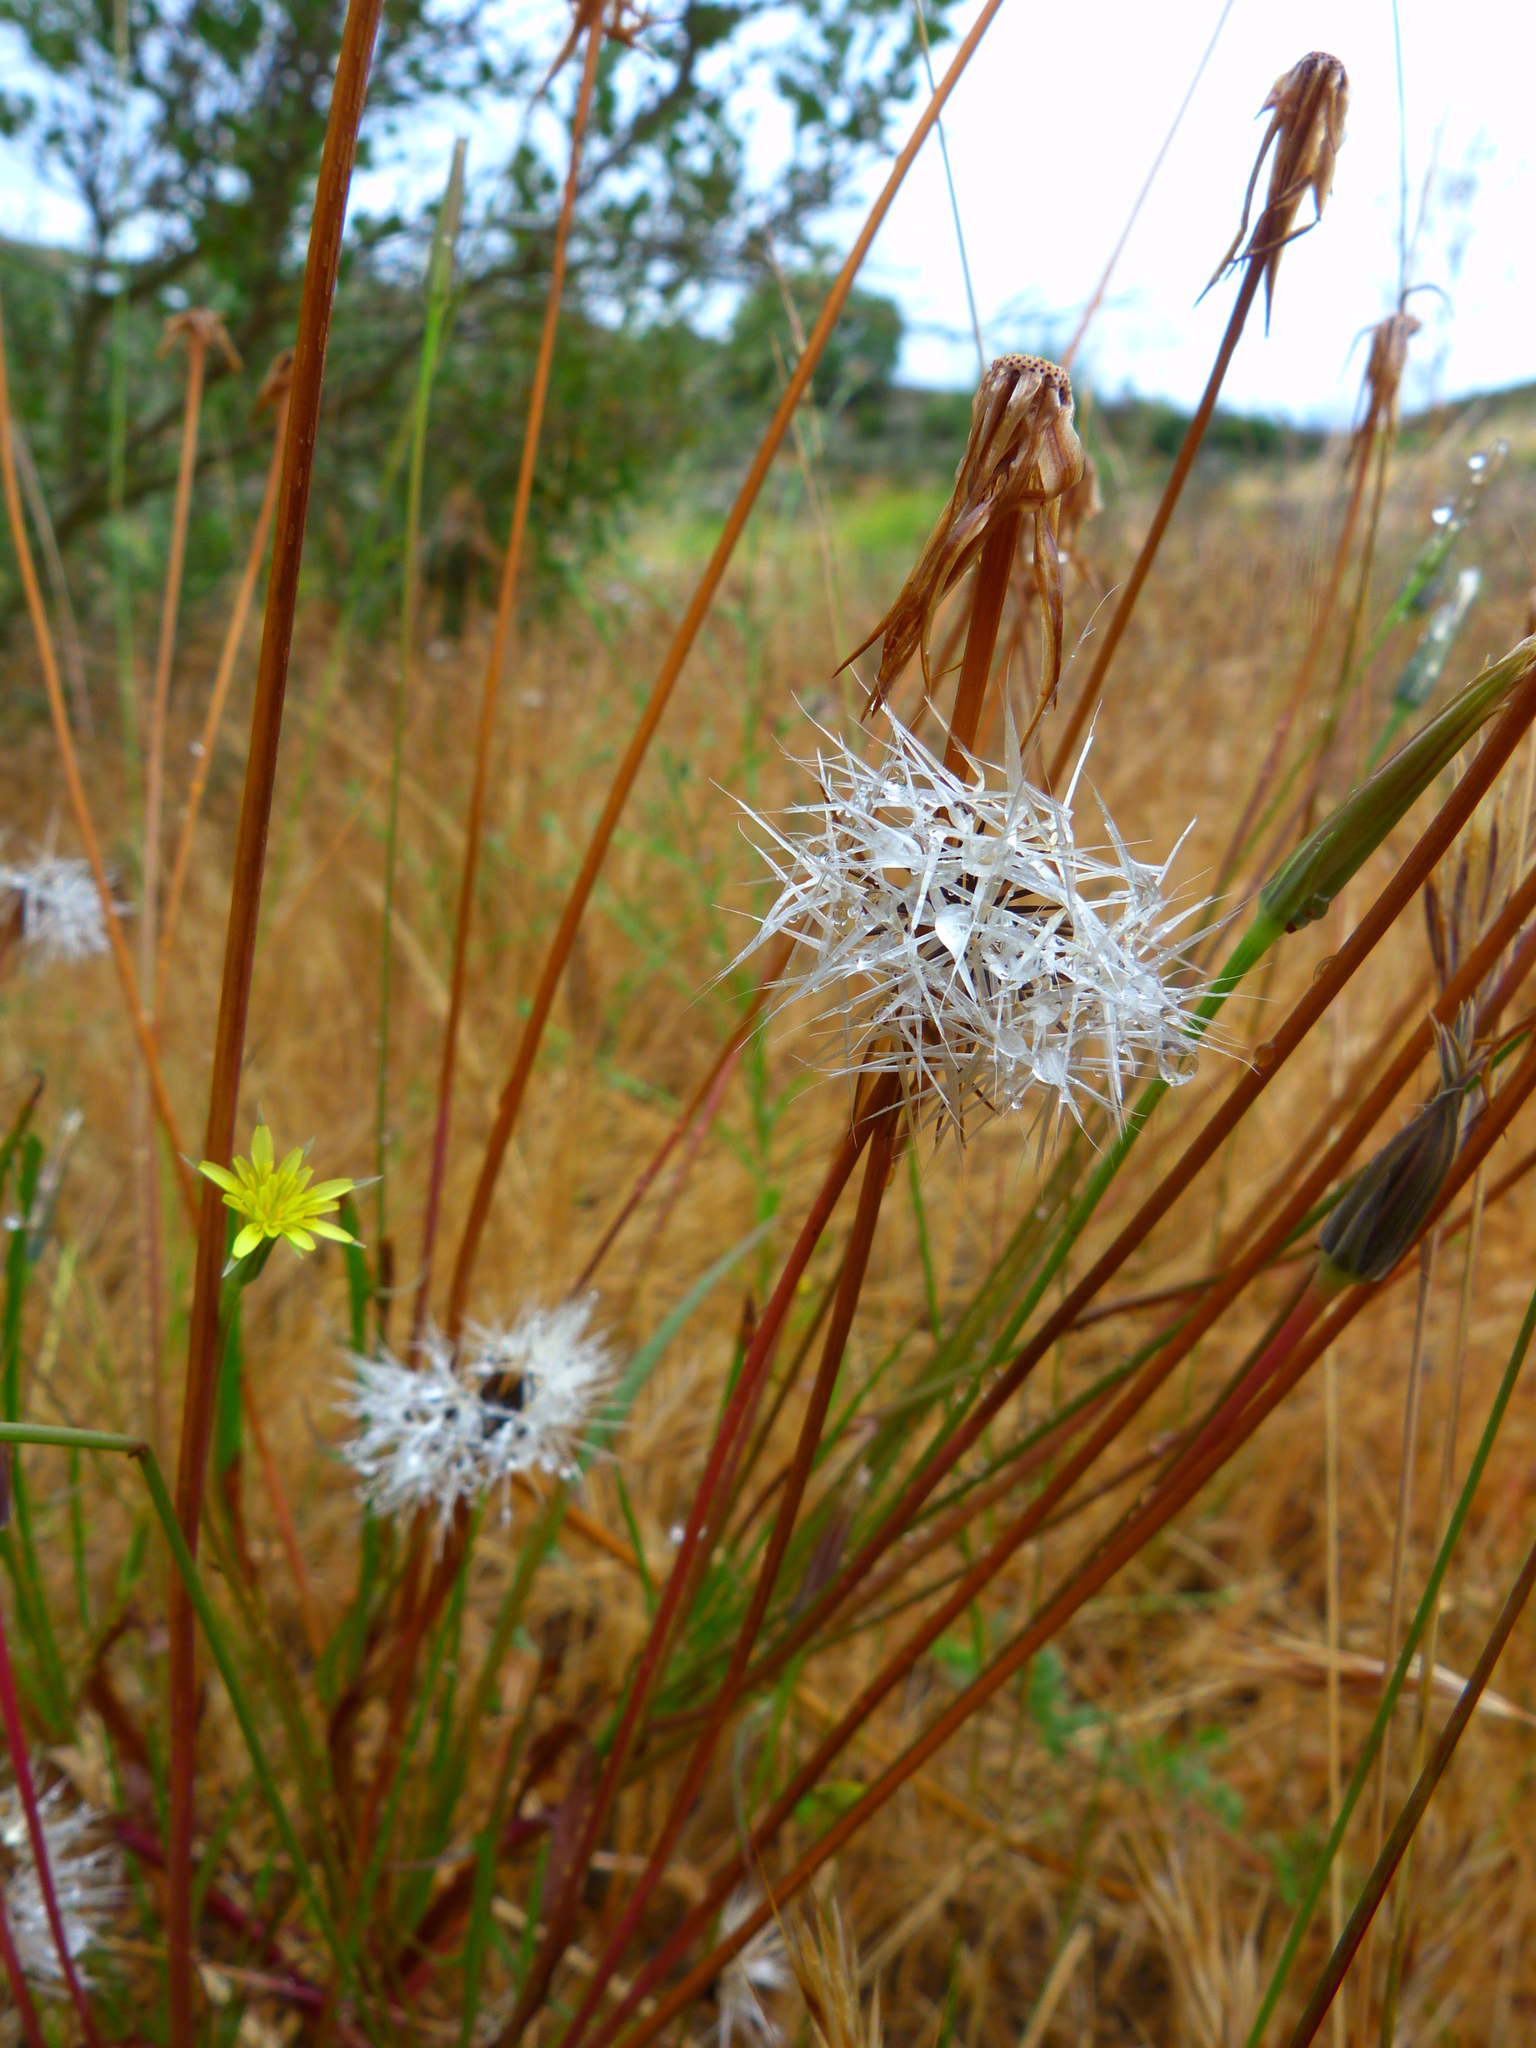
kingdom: Plantae
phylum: Tracheophyta
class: Magnoliopsida
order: Asterales
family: Asteraceae
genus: Microseris
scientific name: Microseris lindleyi
